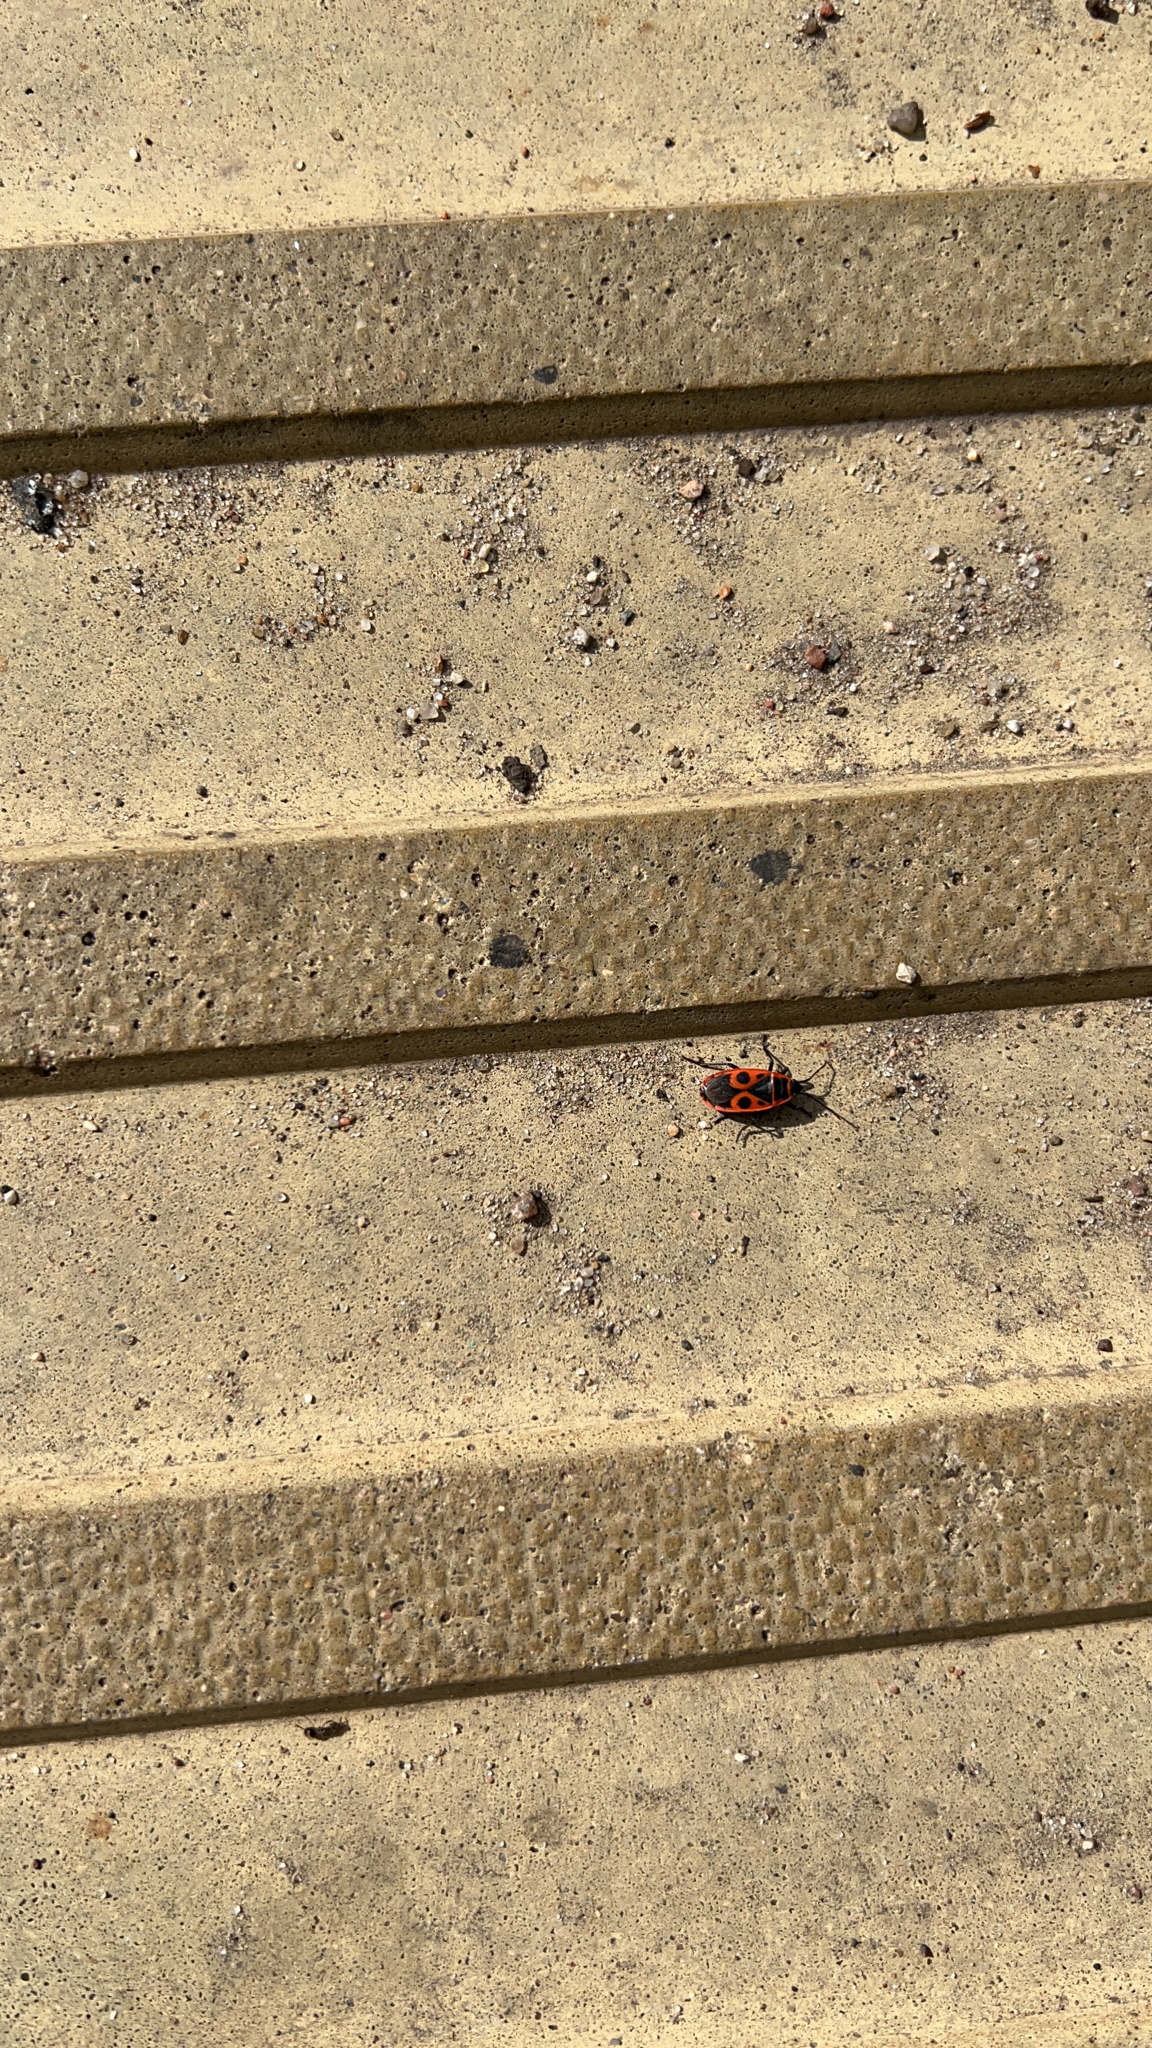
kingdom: Animalia
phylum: Arthropoda
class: Insecta
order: Hemiptera
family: Pyrrhocoridae
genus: Pyrrhocoris
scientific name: Pyrrhocoris apterus
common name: Firebug
